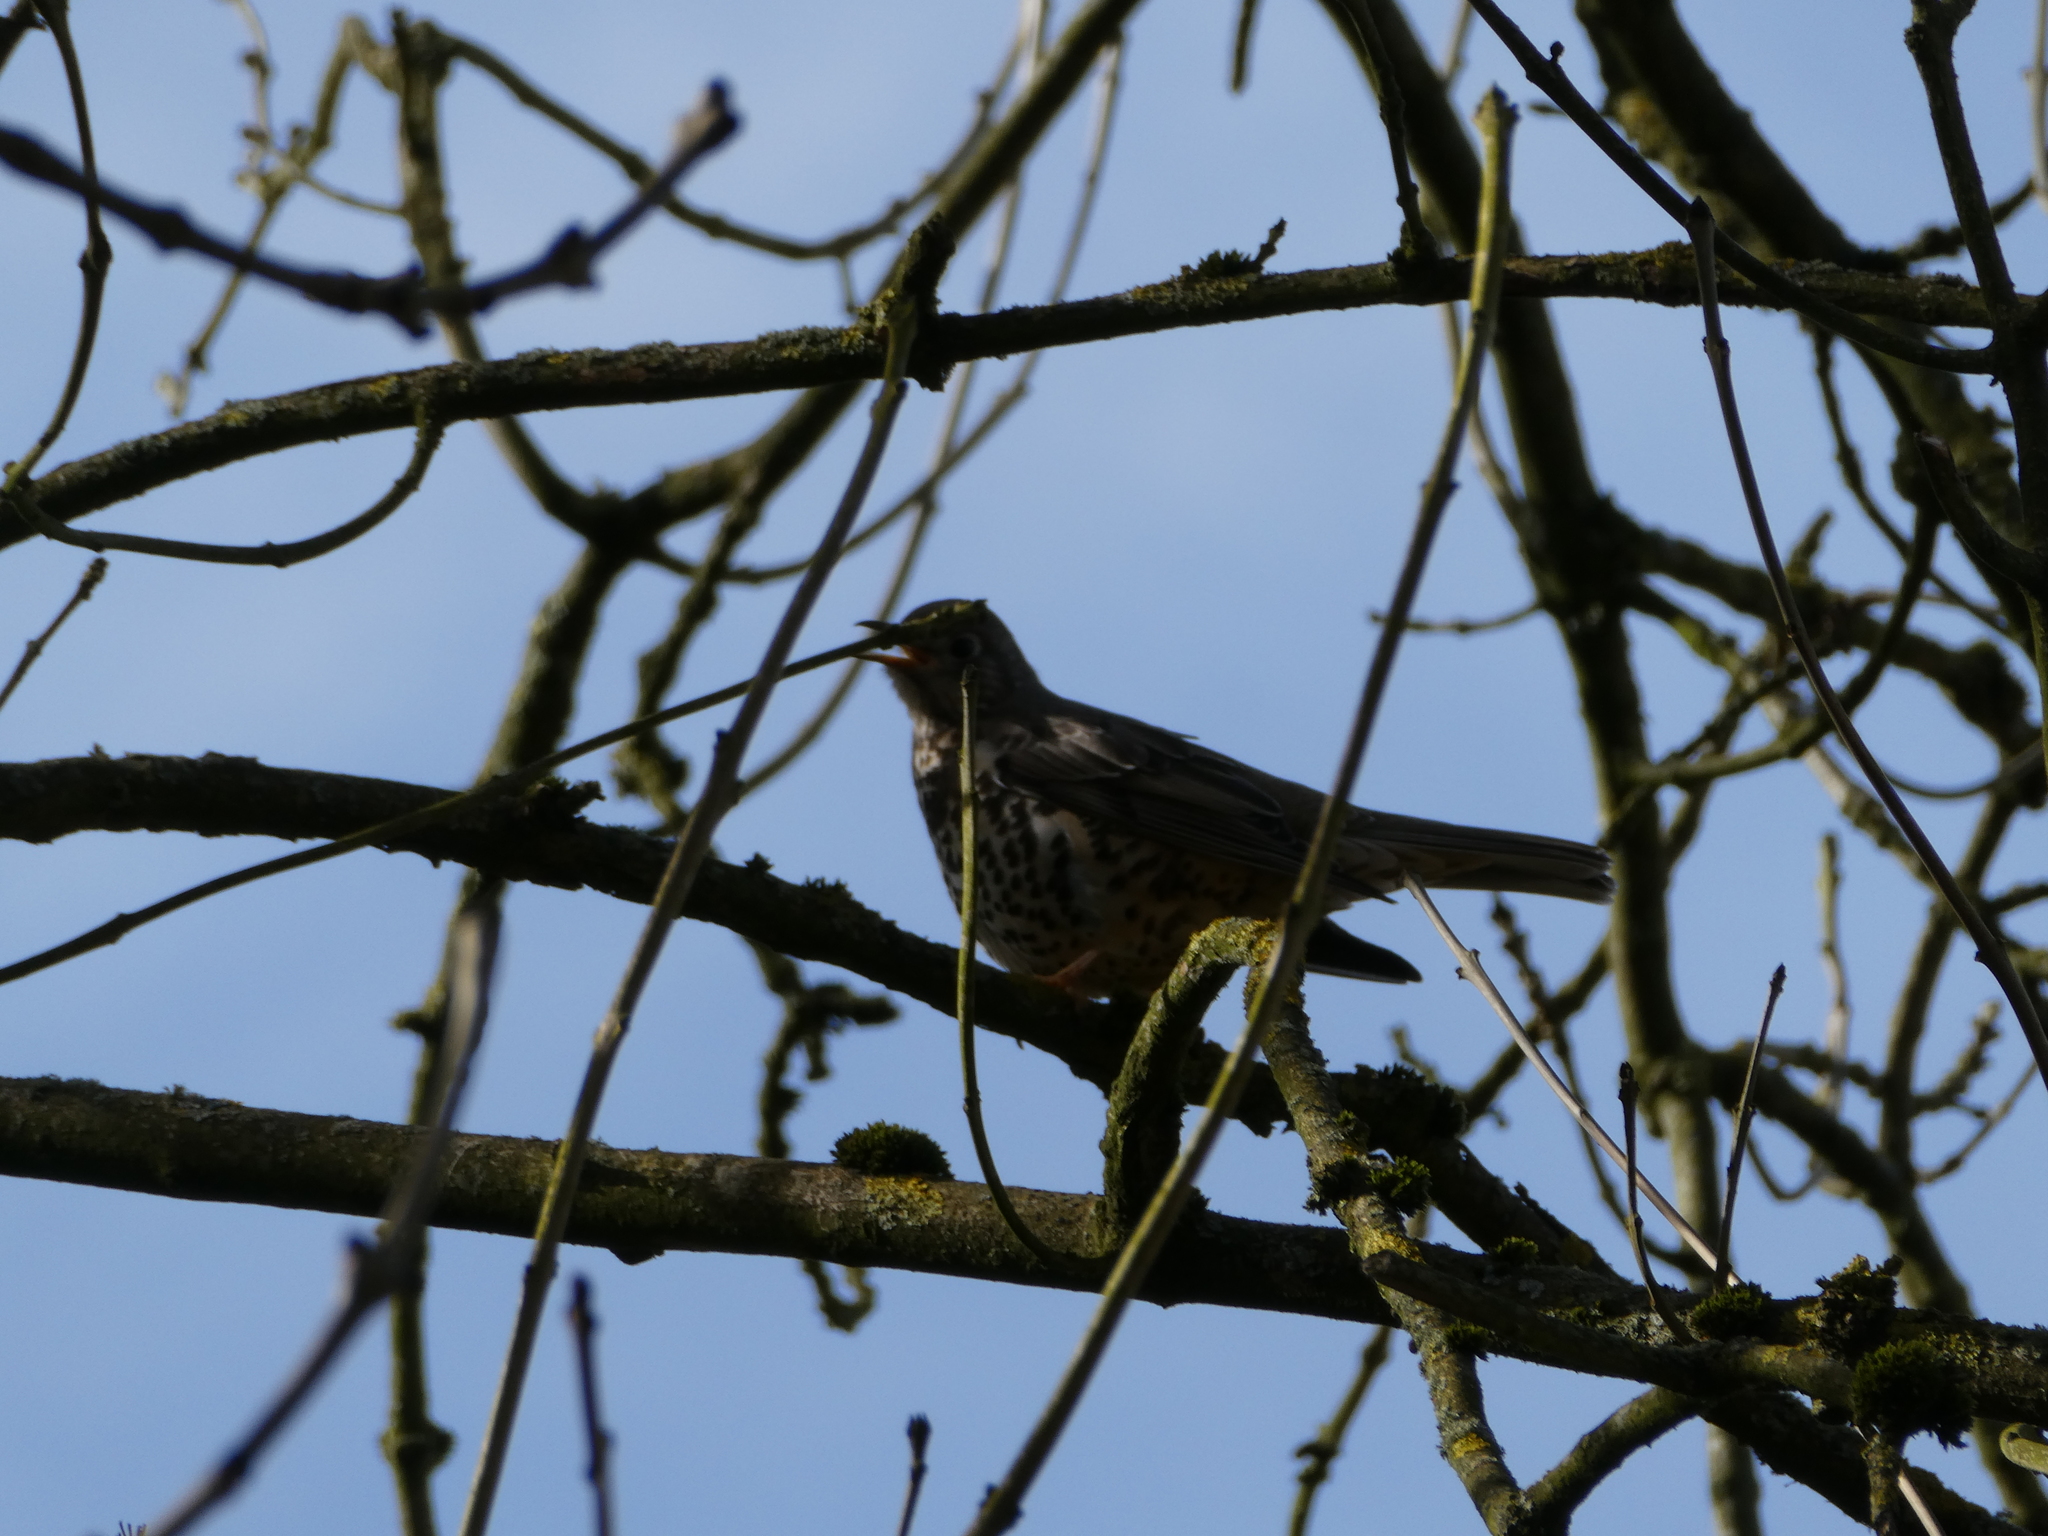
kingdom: Animalia
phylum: Chordata
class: Aves
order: Passeriformes
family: Turdidae
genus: Turdus
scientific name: Turdus viscivorus
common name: Mistle thrush
